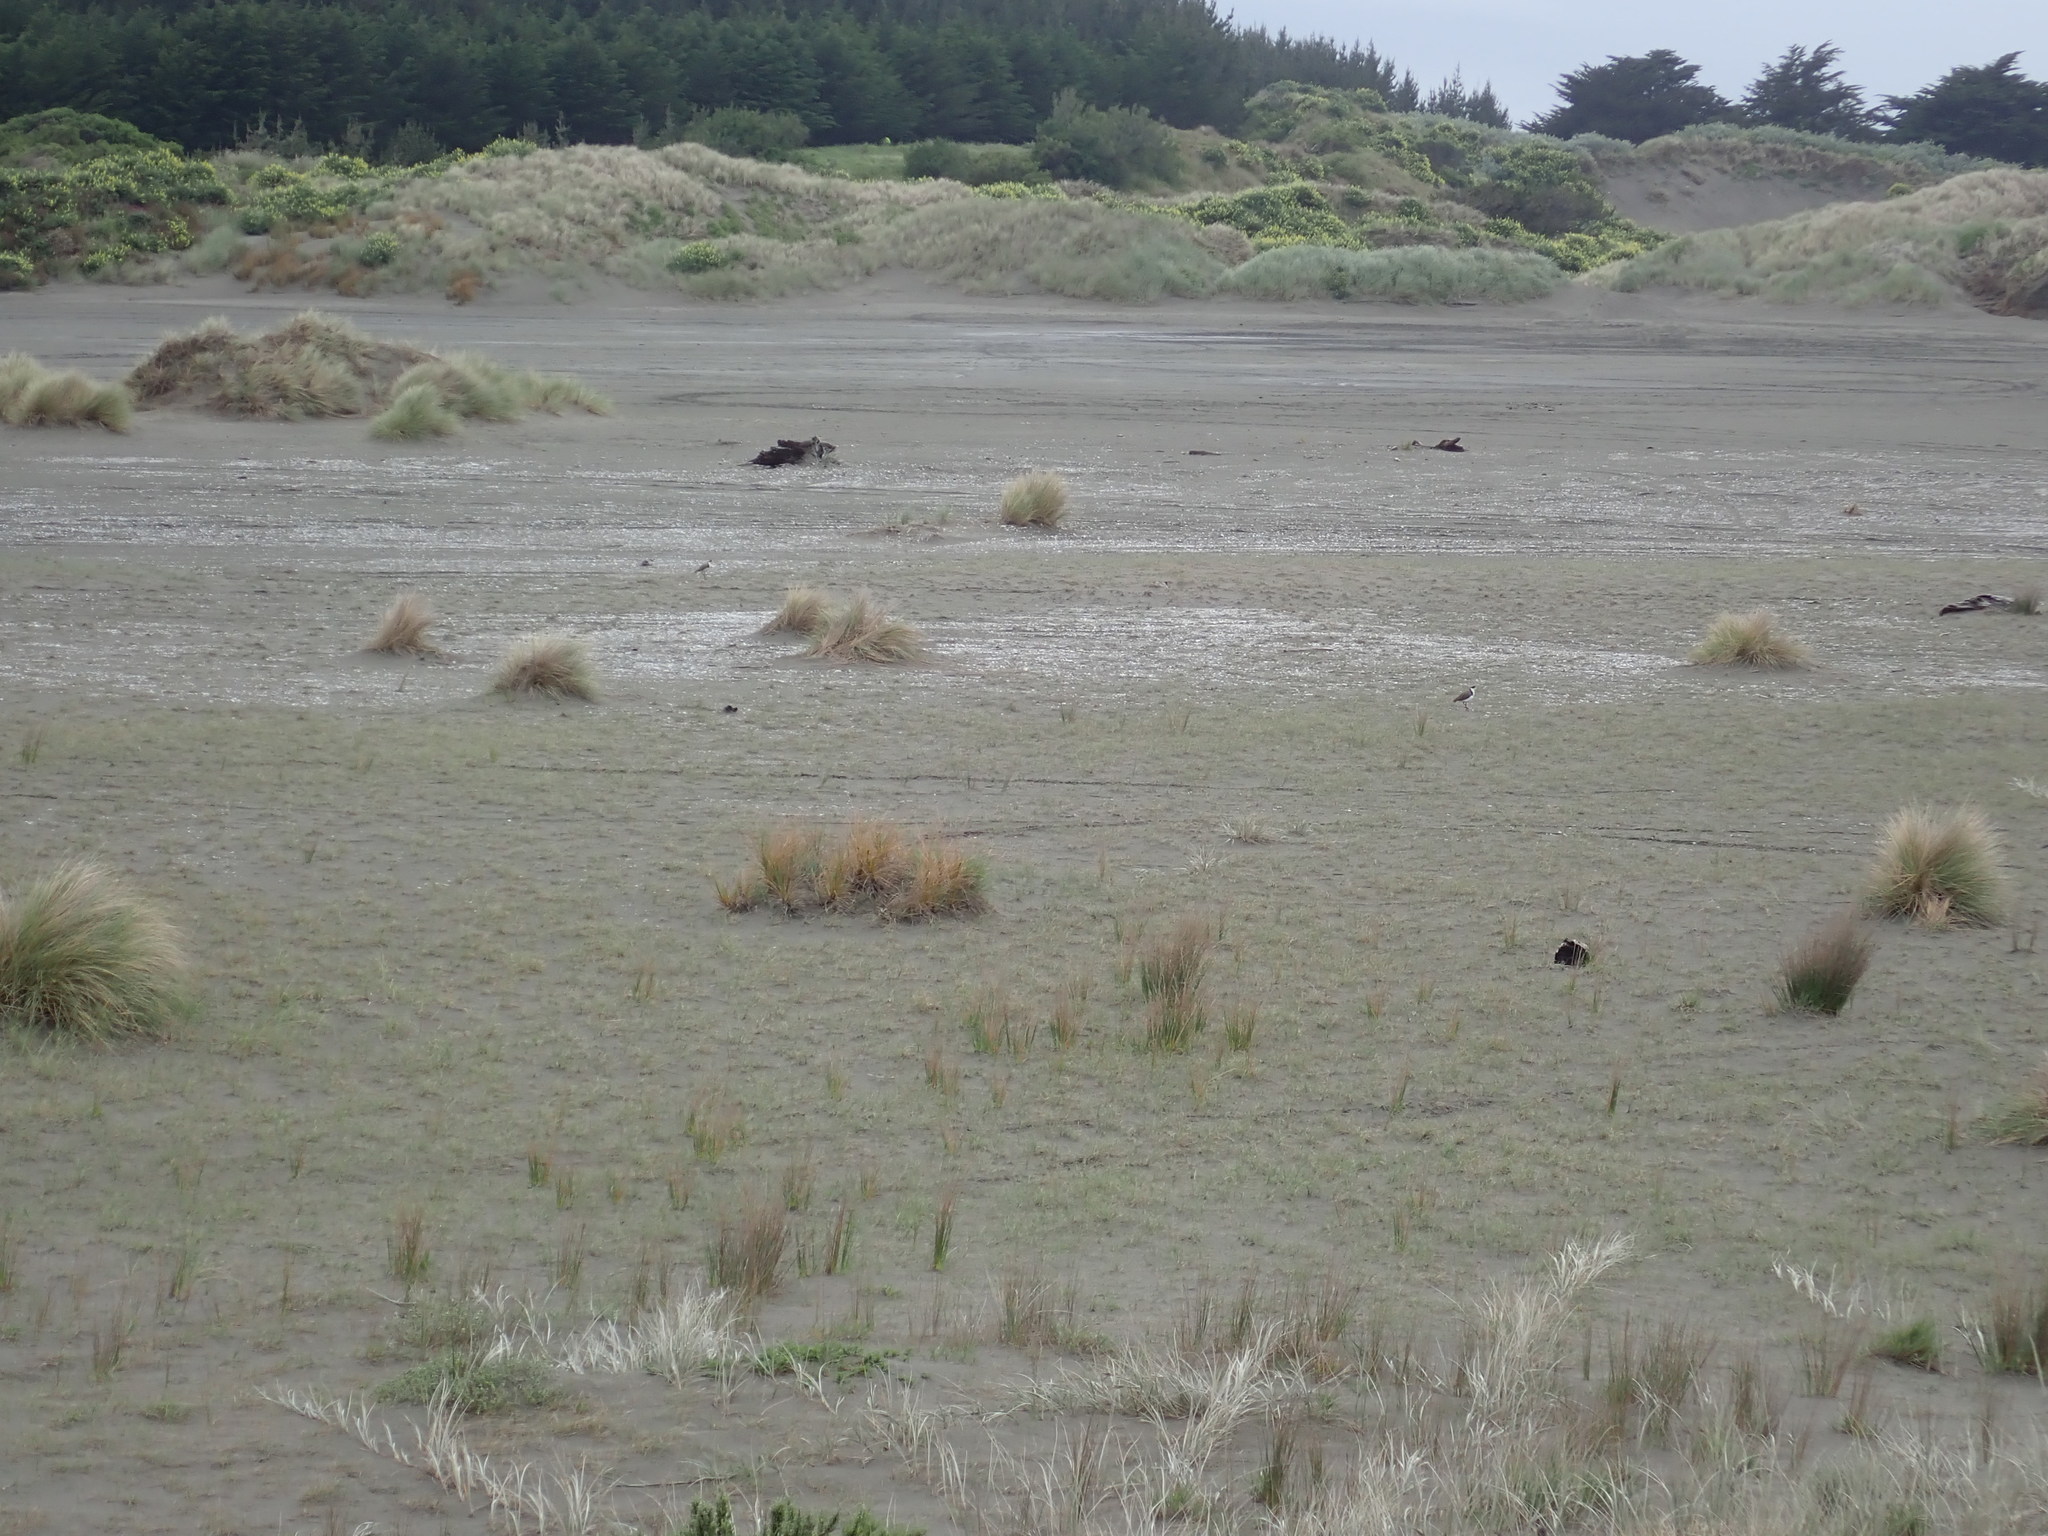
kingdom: Animalia
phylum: Chordata
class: Aves
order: Charadriiformes
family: Charadriidae
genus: Vanellus
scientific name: Vanellus miles
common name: Masked lapwing
